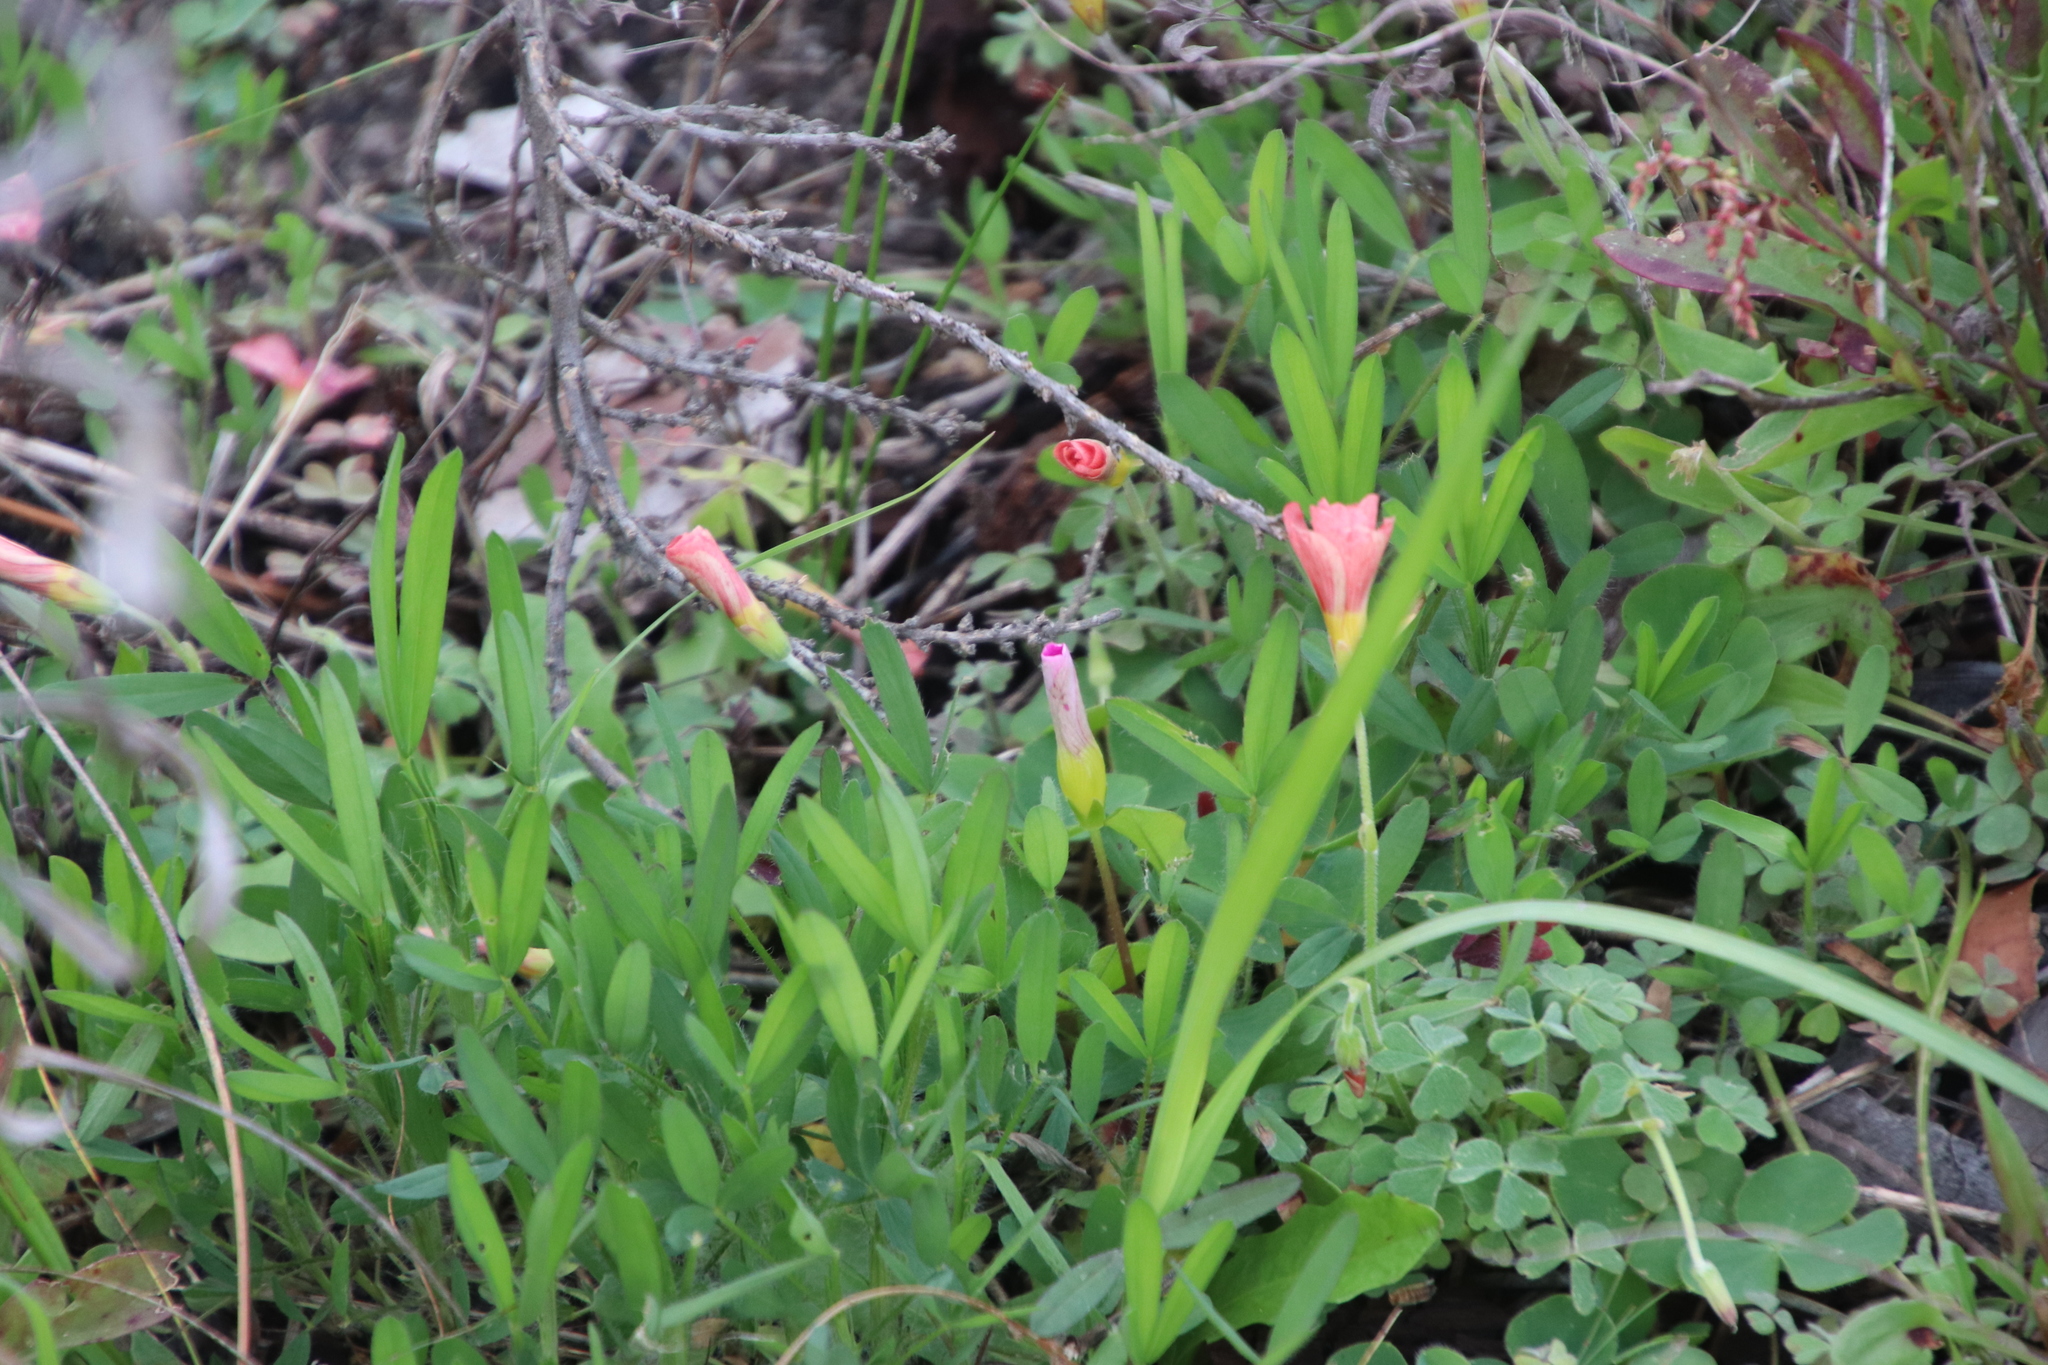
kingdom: Plantae
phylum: Tracheophyta
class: Magnoliopsida
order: Oxalidales
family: Oxalidaceae
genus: Oxalis
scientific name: Oxalis obtusa
